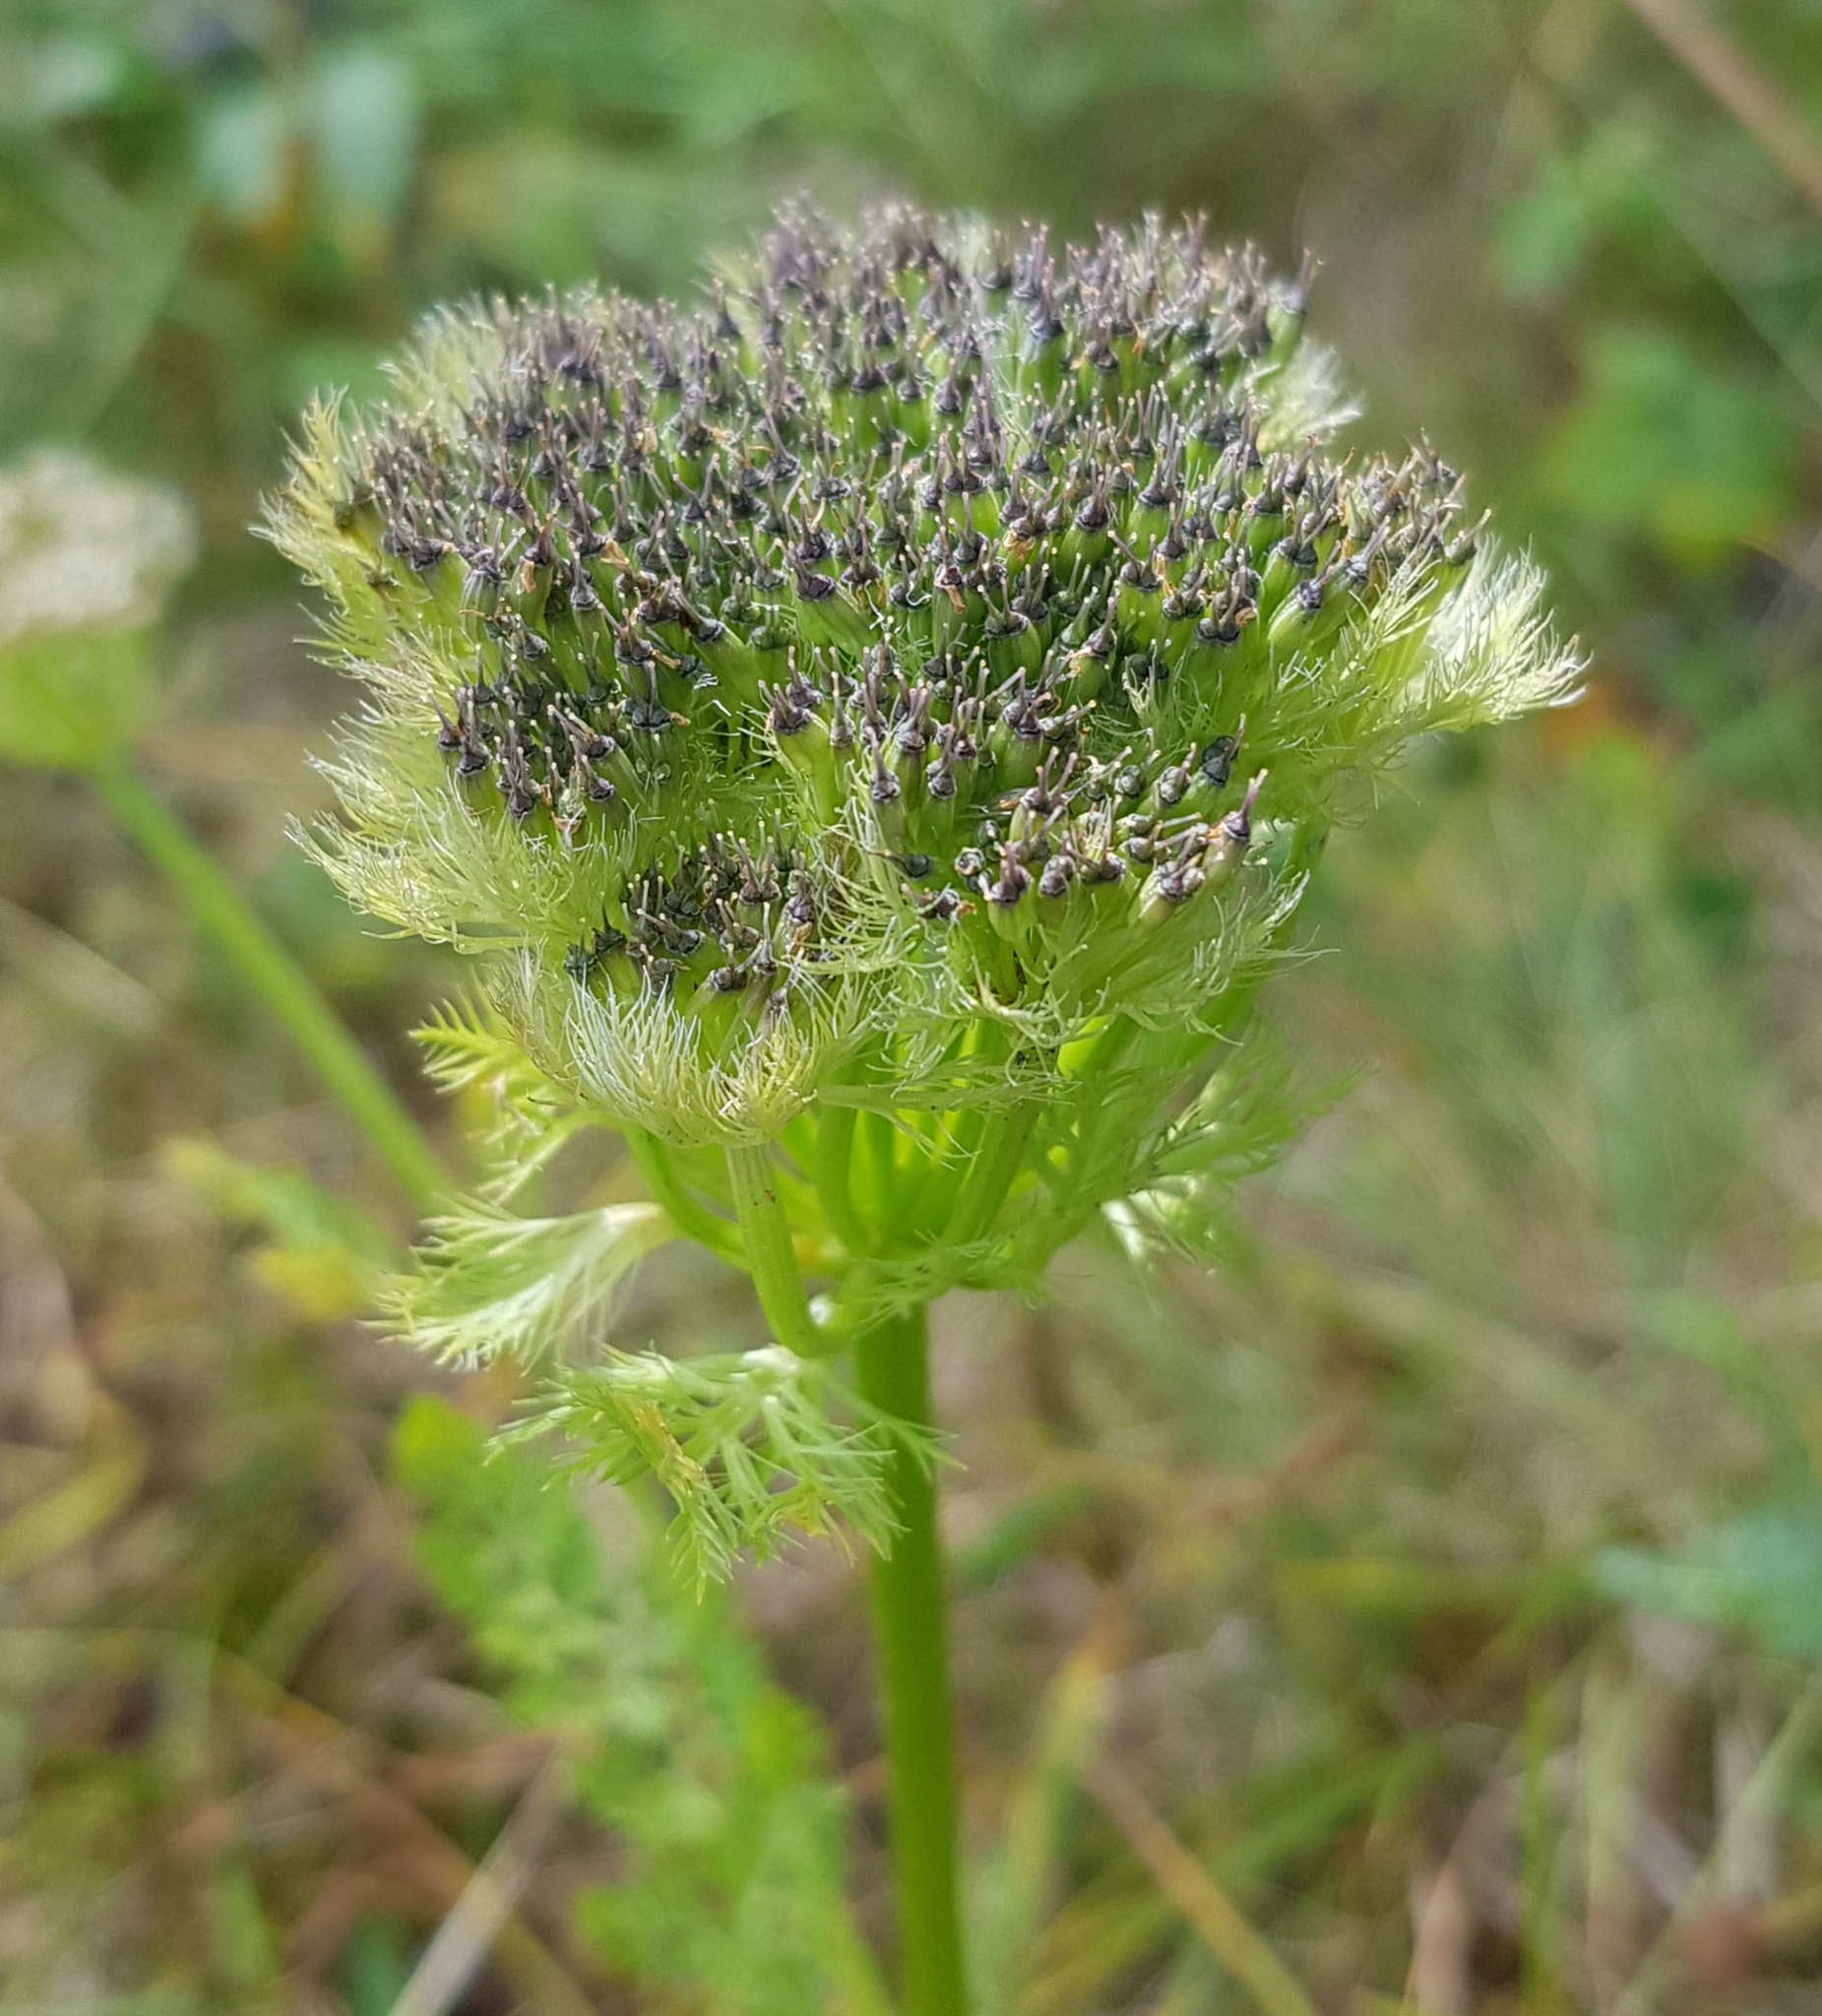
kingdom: Plantae
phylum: Tracheophyta
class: Magnoliopsida
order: Apiales
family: Apiaceae
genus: Schulzia
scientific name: Schulzia crinita
